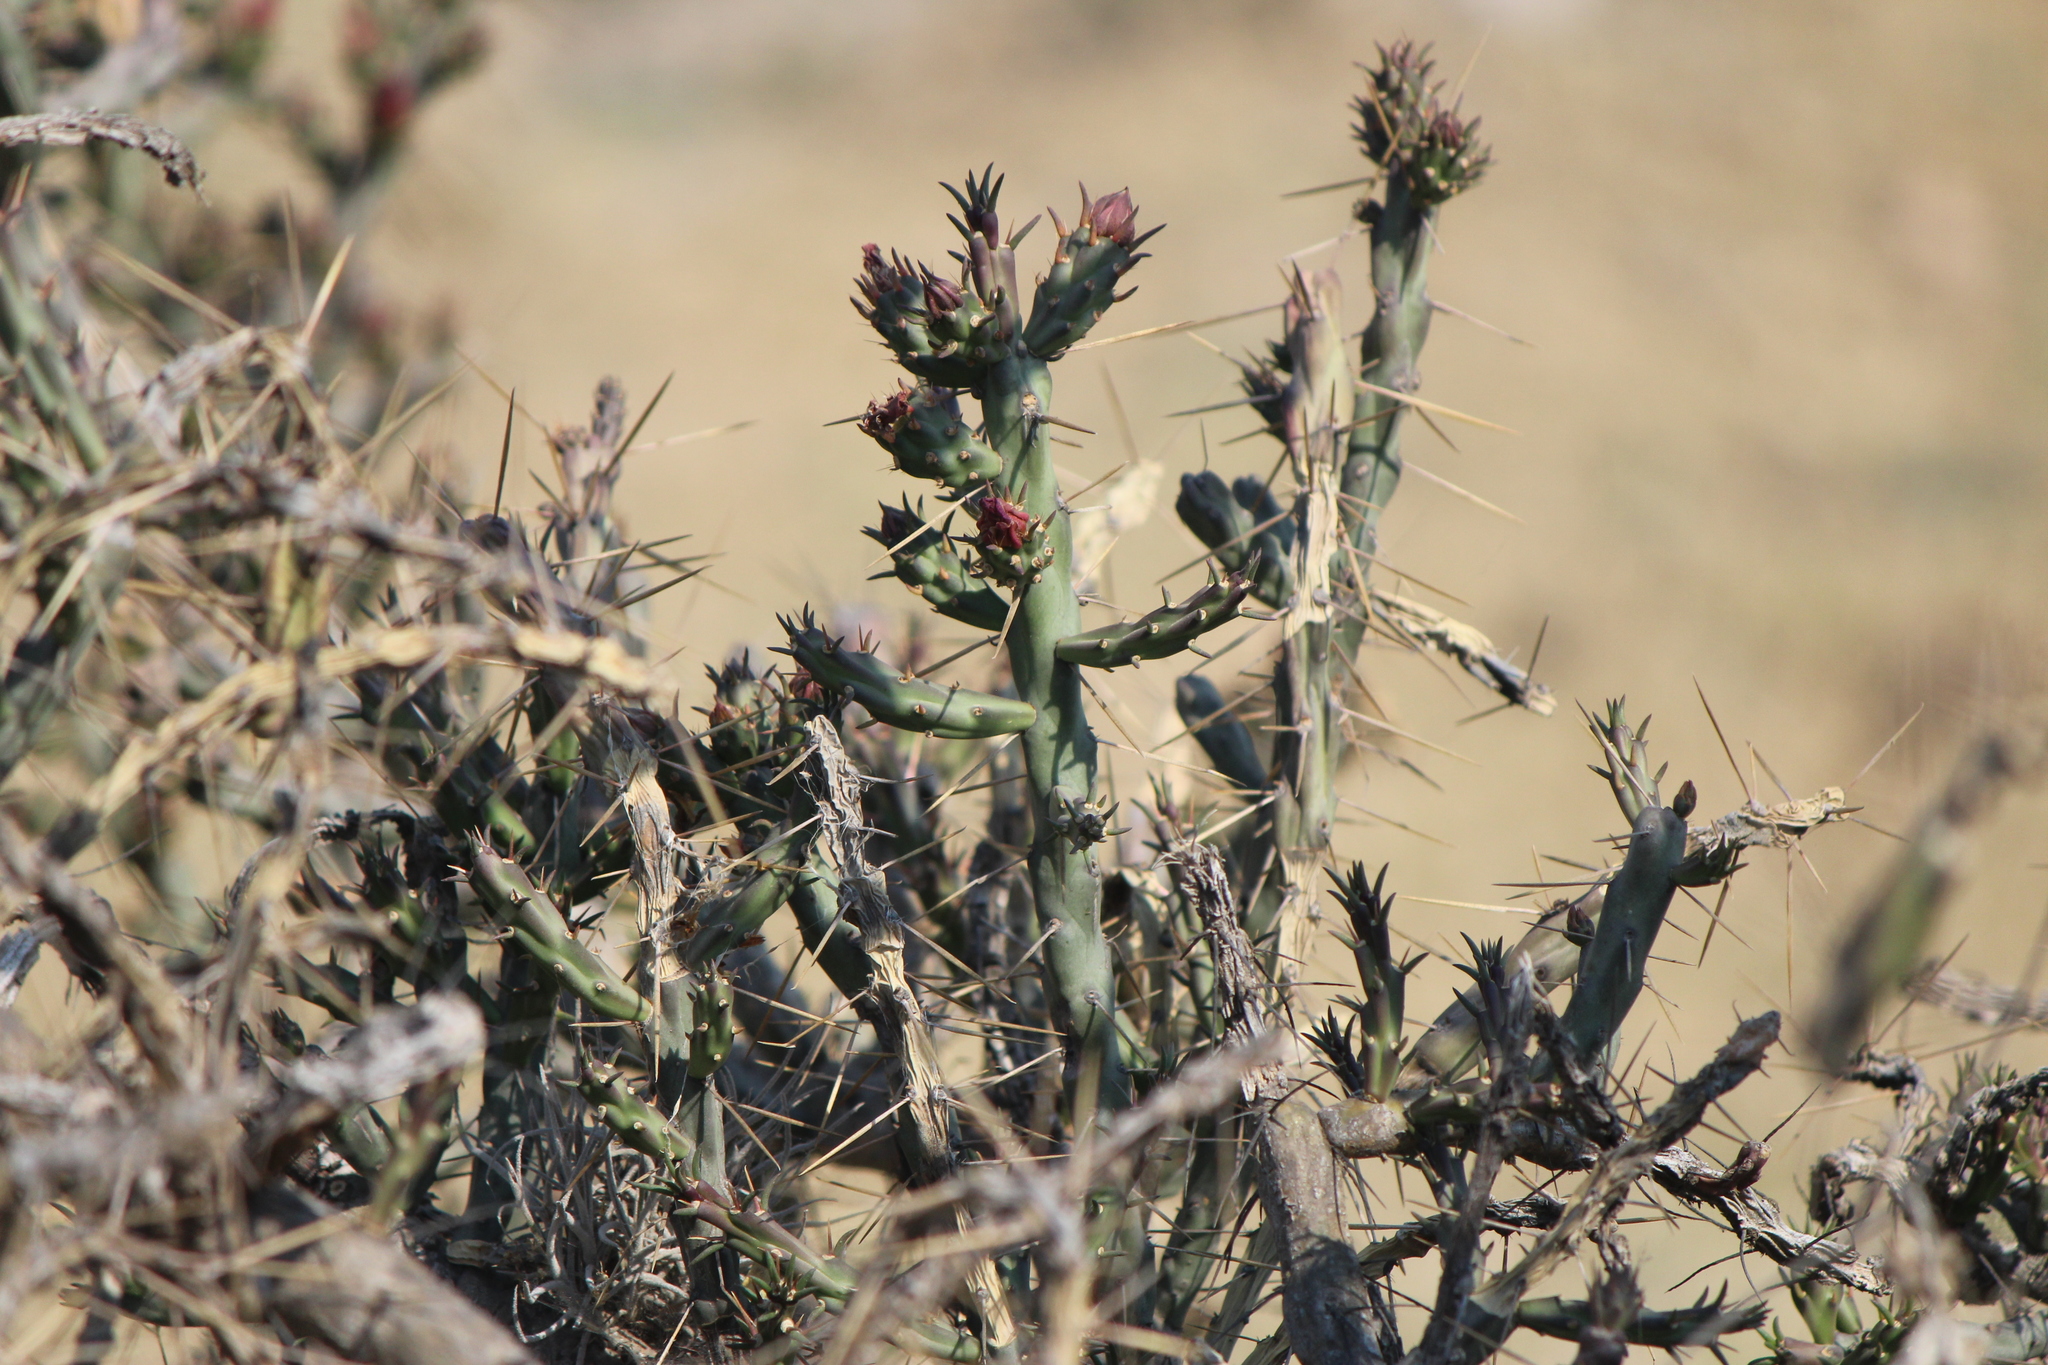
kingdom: Plantae
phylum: Tracheophyta
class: Magnoliopsida
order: Caryophyllales
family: Cactaceae
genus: Cylindropuntia
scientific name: Cylindropuntia kleiniae
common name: Klein's cholla
